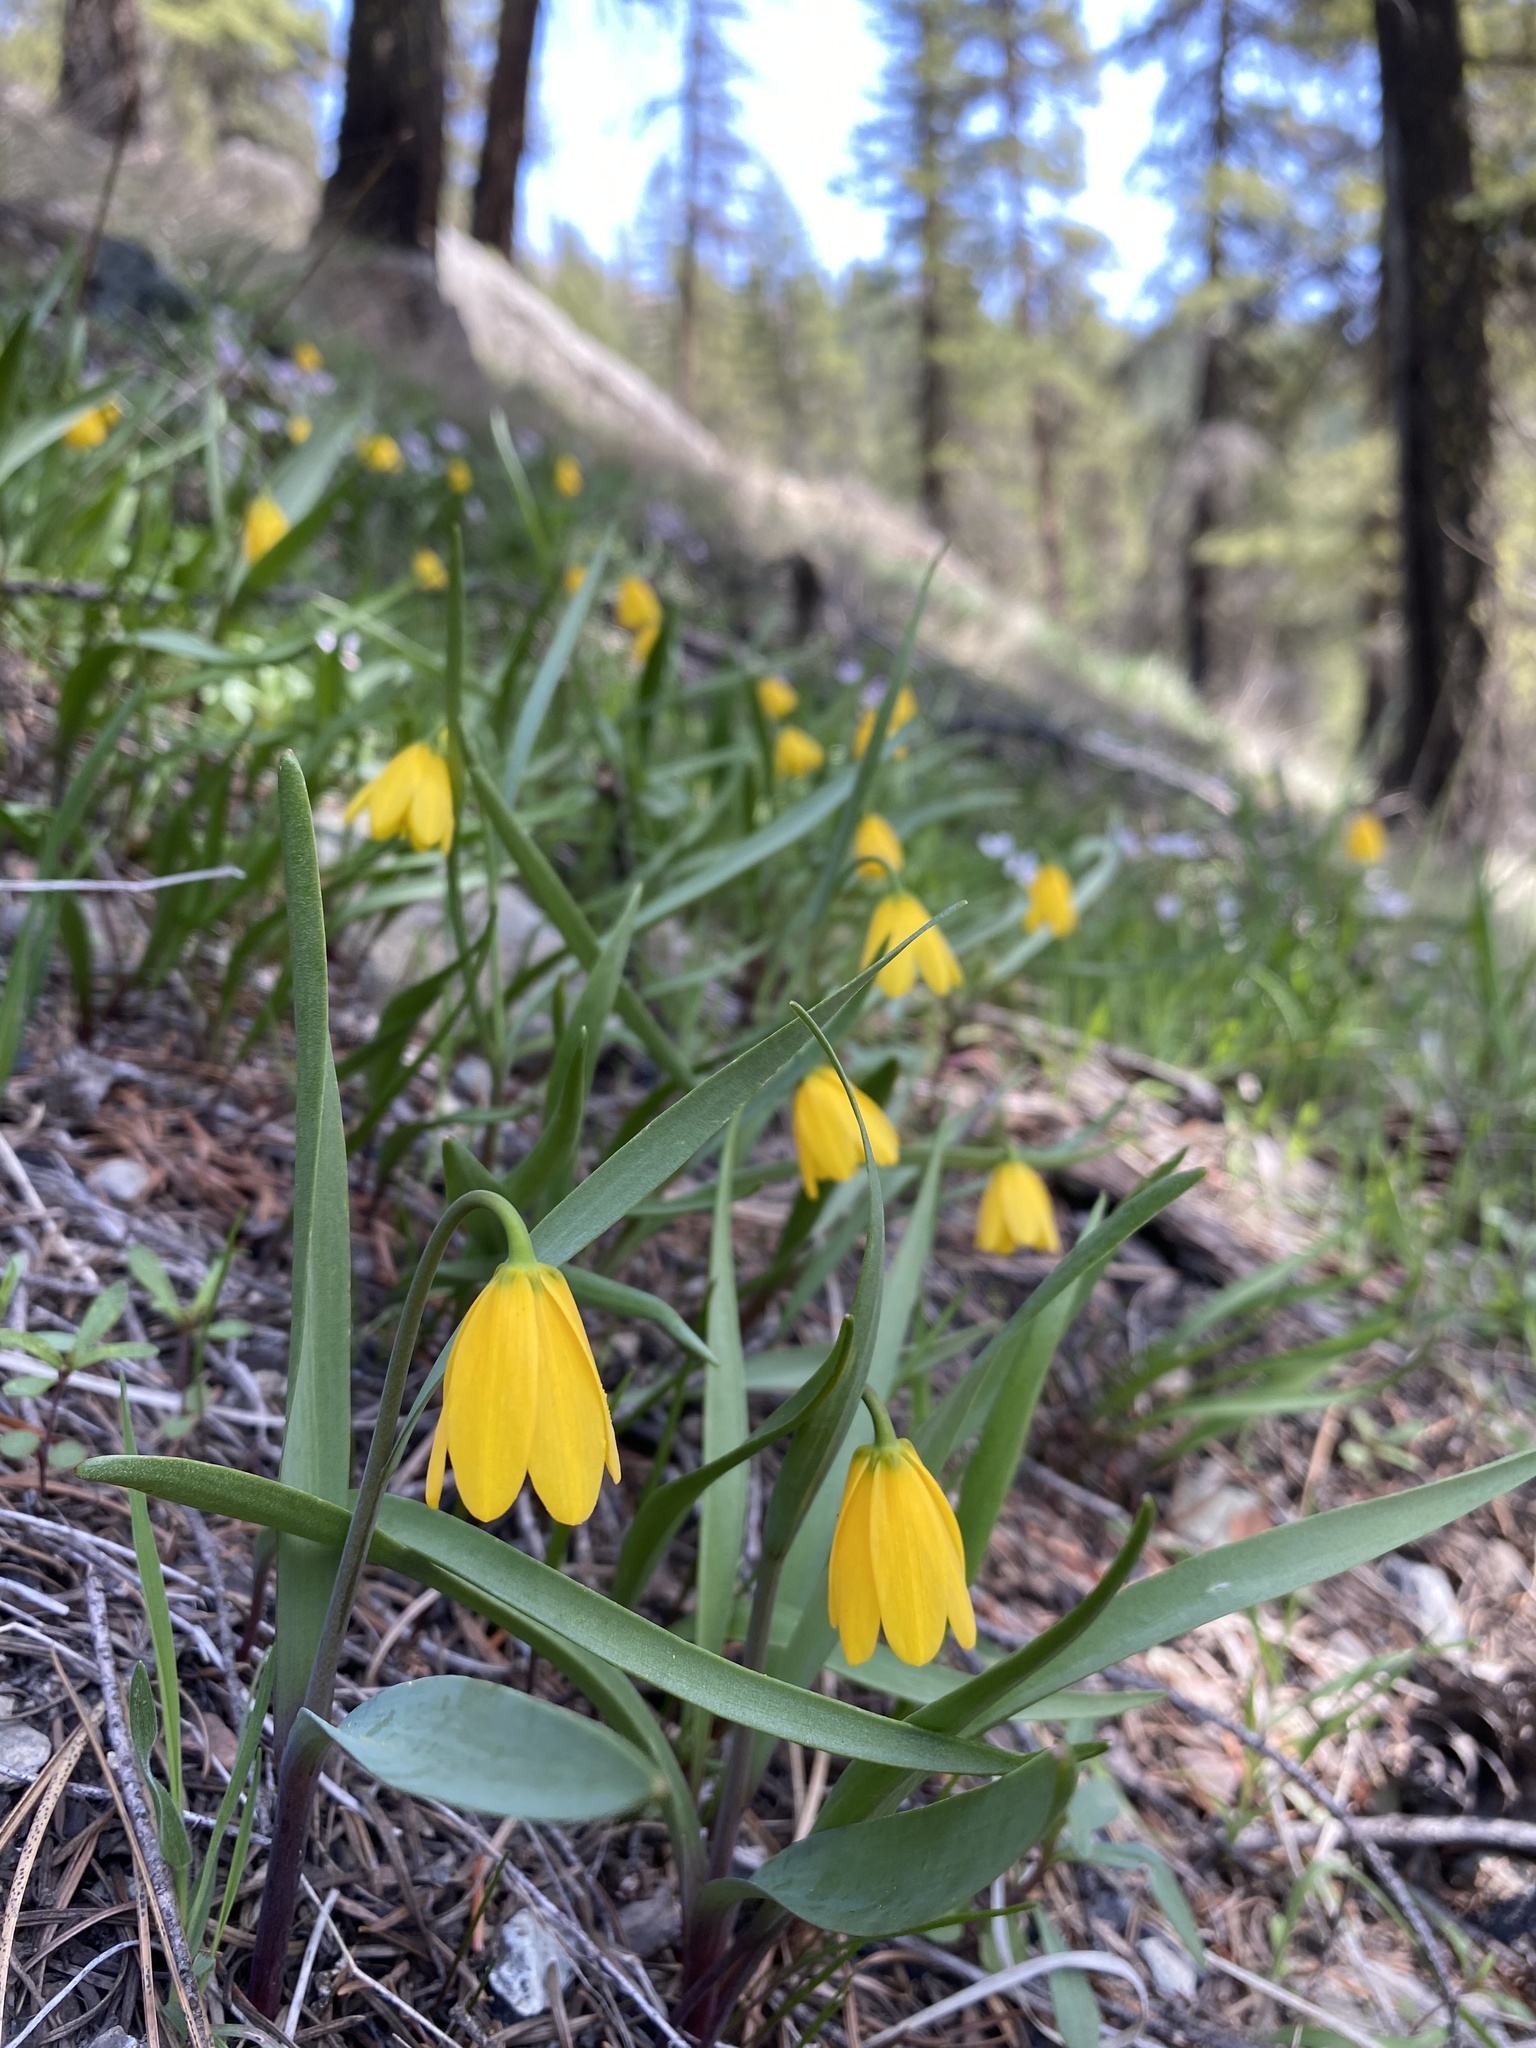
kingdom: Plantae
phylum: Tracheophyta
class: Liliopsida
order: Liliales
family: Liliaceae
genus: Fritillaria
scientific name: Fritillaria pudica
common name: Yellow fritillary
